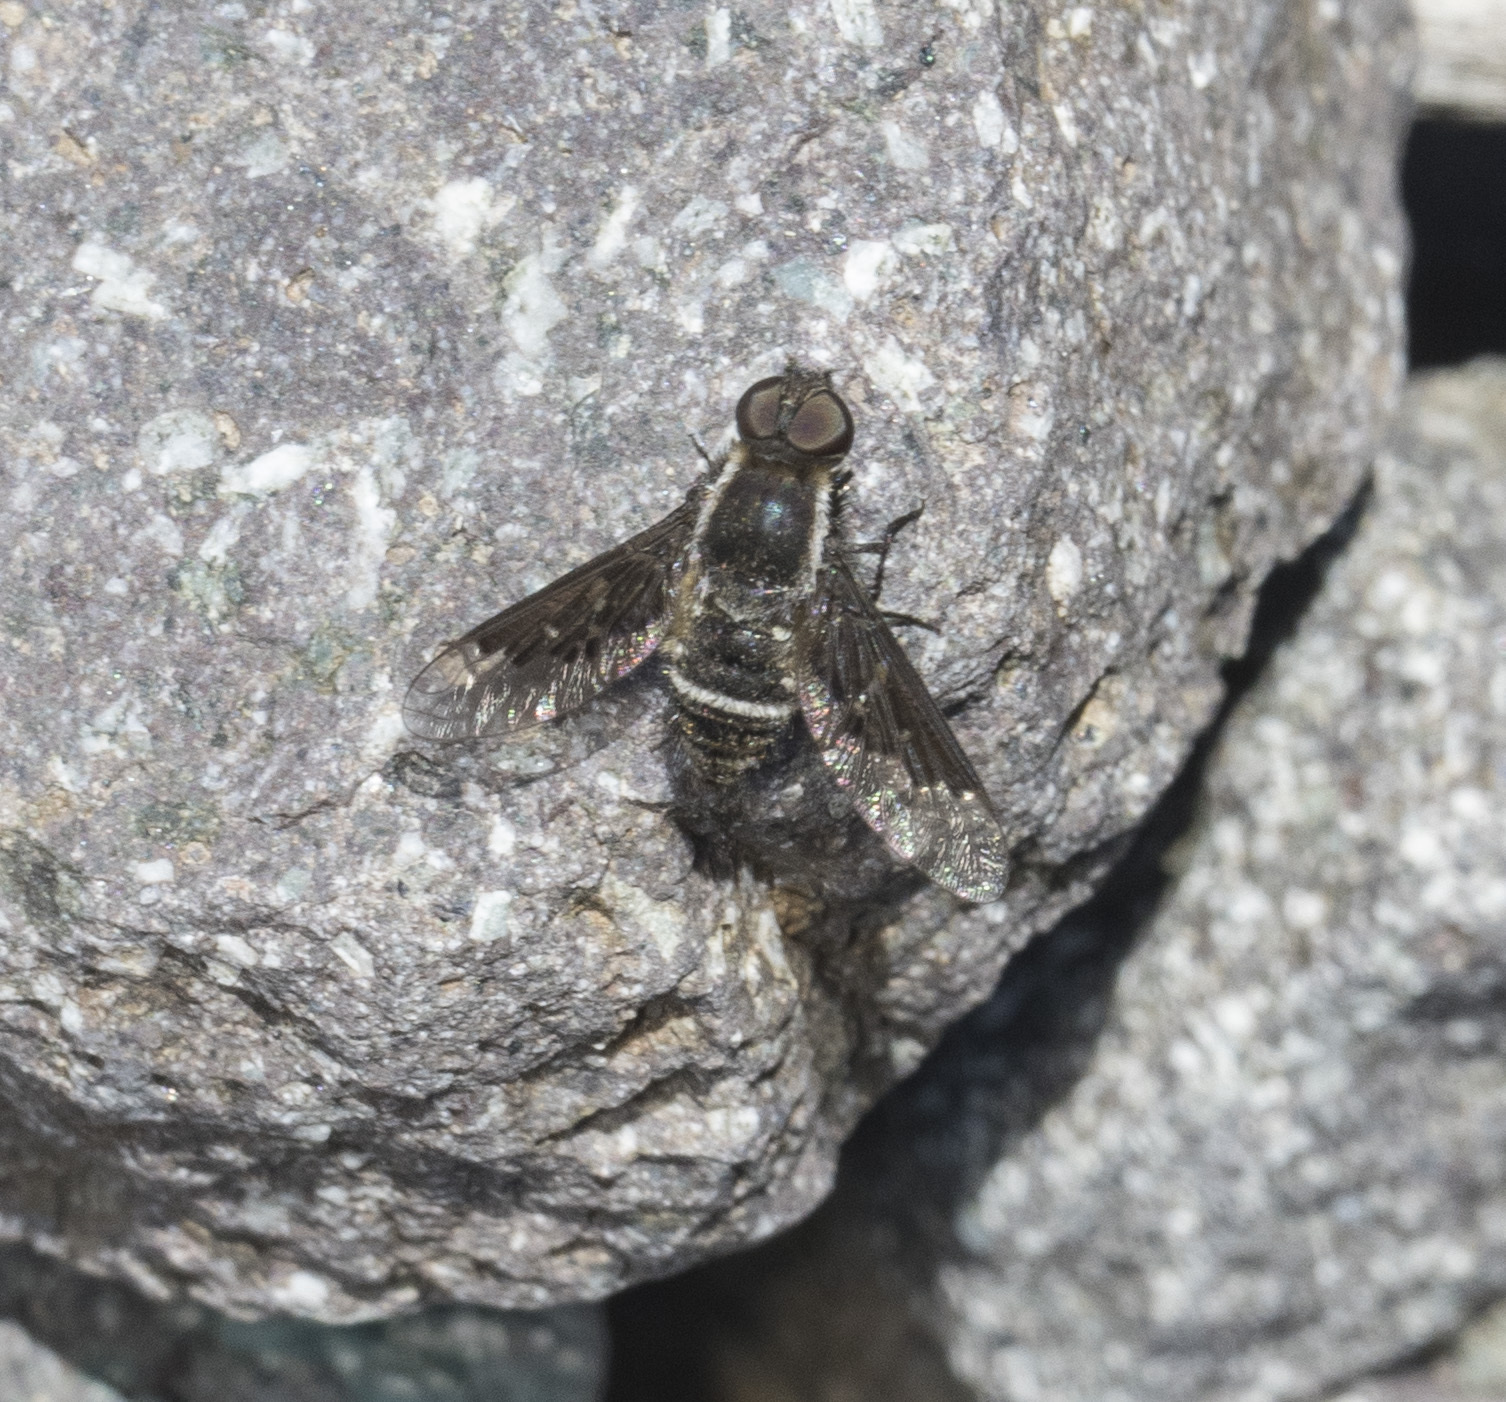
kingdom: Animalia
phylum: Arthropoda
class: Insecta
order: Diptera
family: Bombyliidae
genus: Hemipenthes
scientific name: Hemipenthes differens
